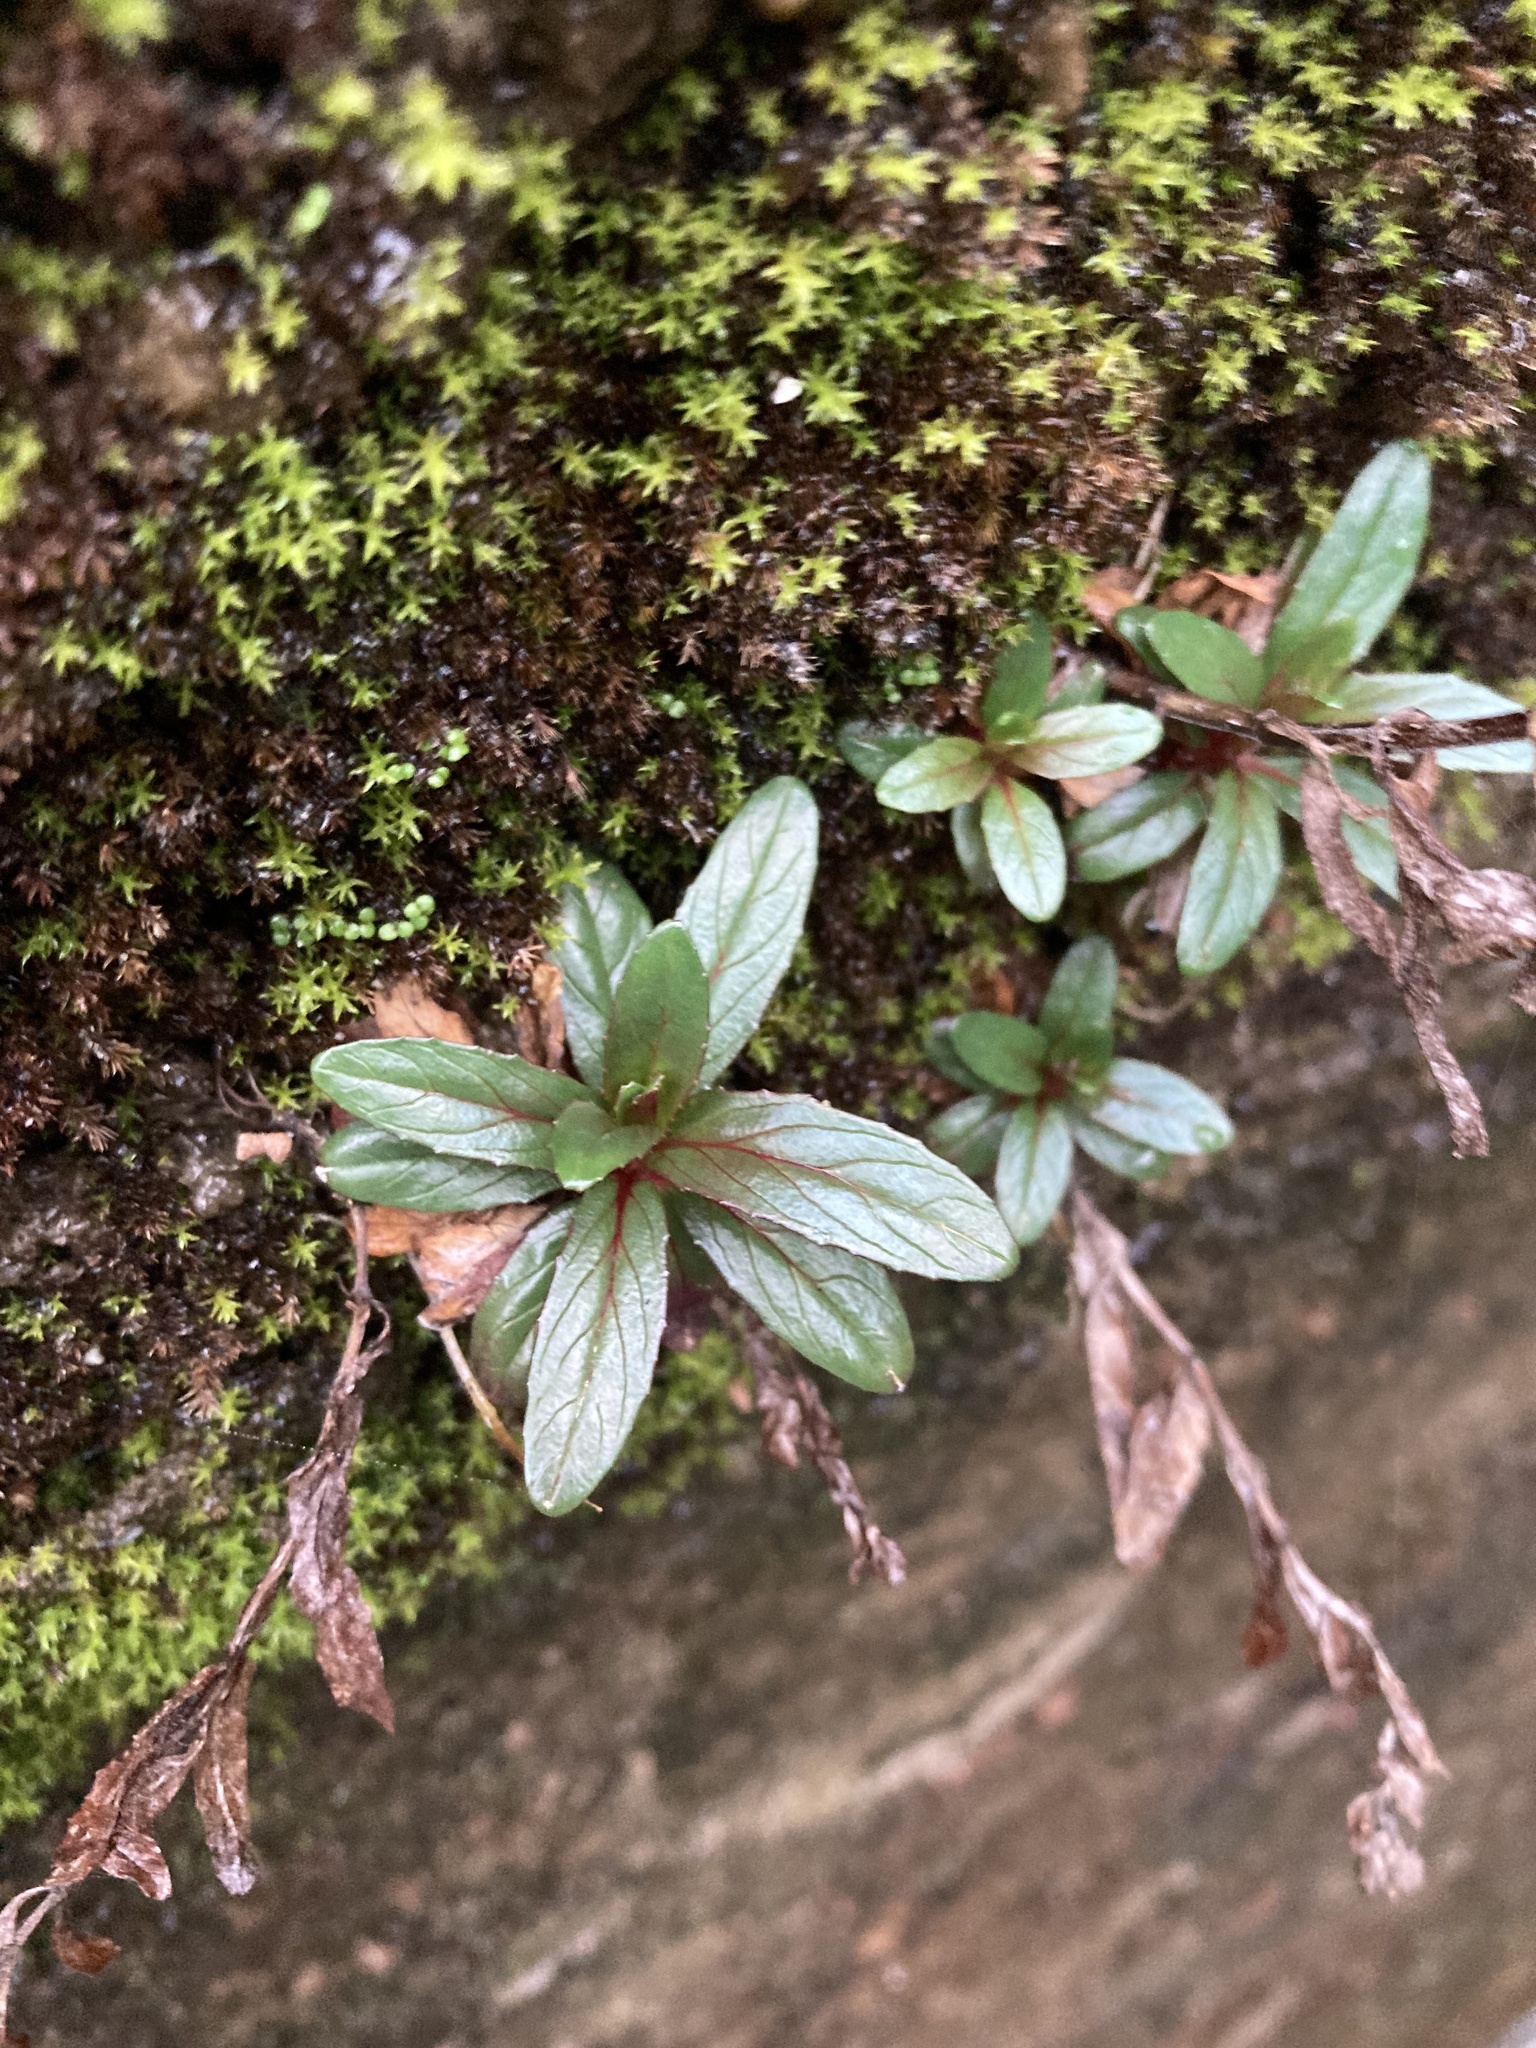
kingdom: Plantae
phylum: Tracheophyta
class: Magnoliopsida
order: Myrtales
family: Onagraceae
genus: Epilobium
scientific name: Epilobium ciliatum
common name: American willowherb
